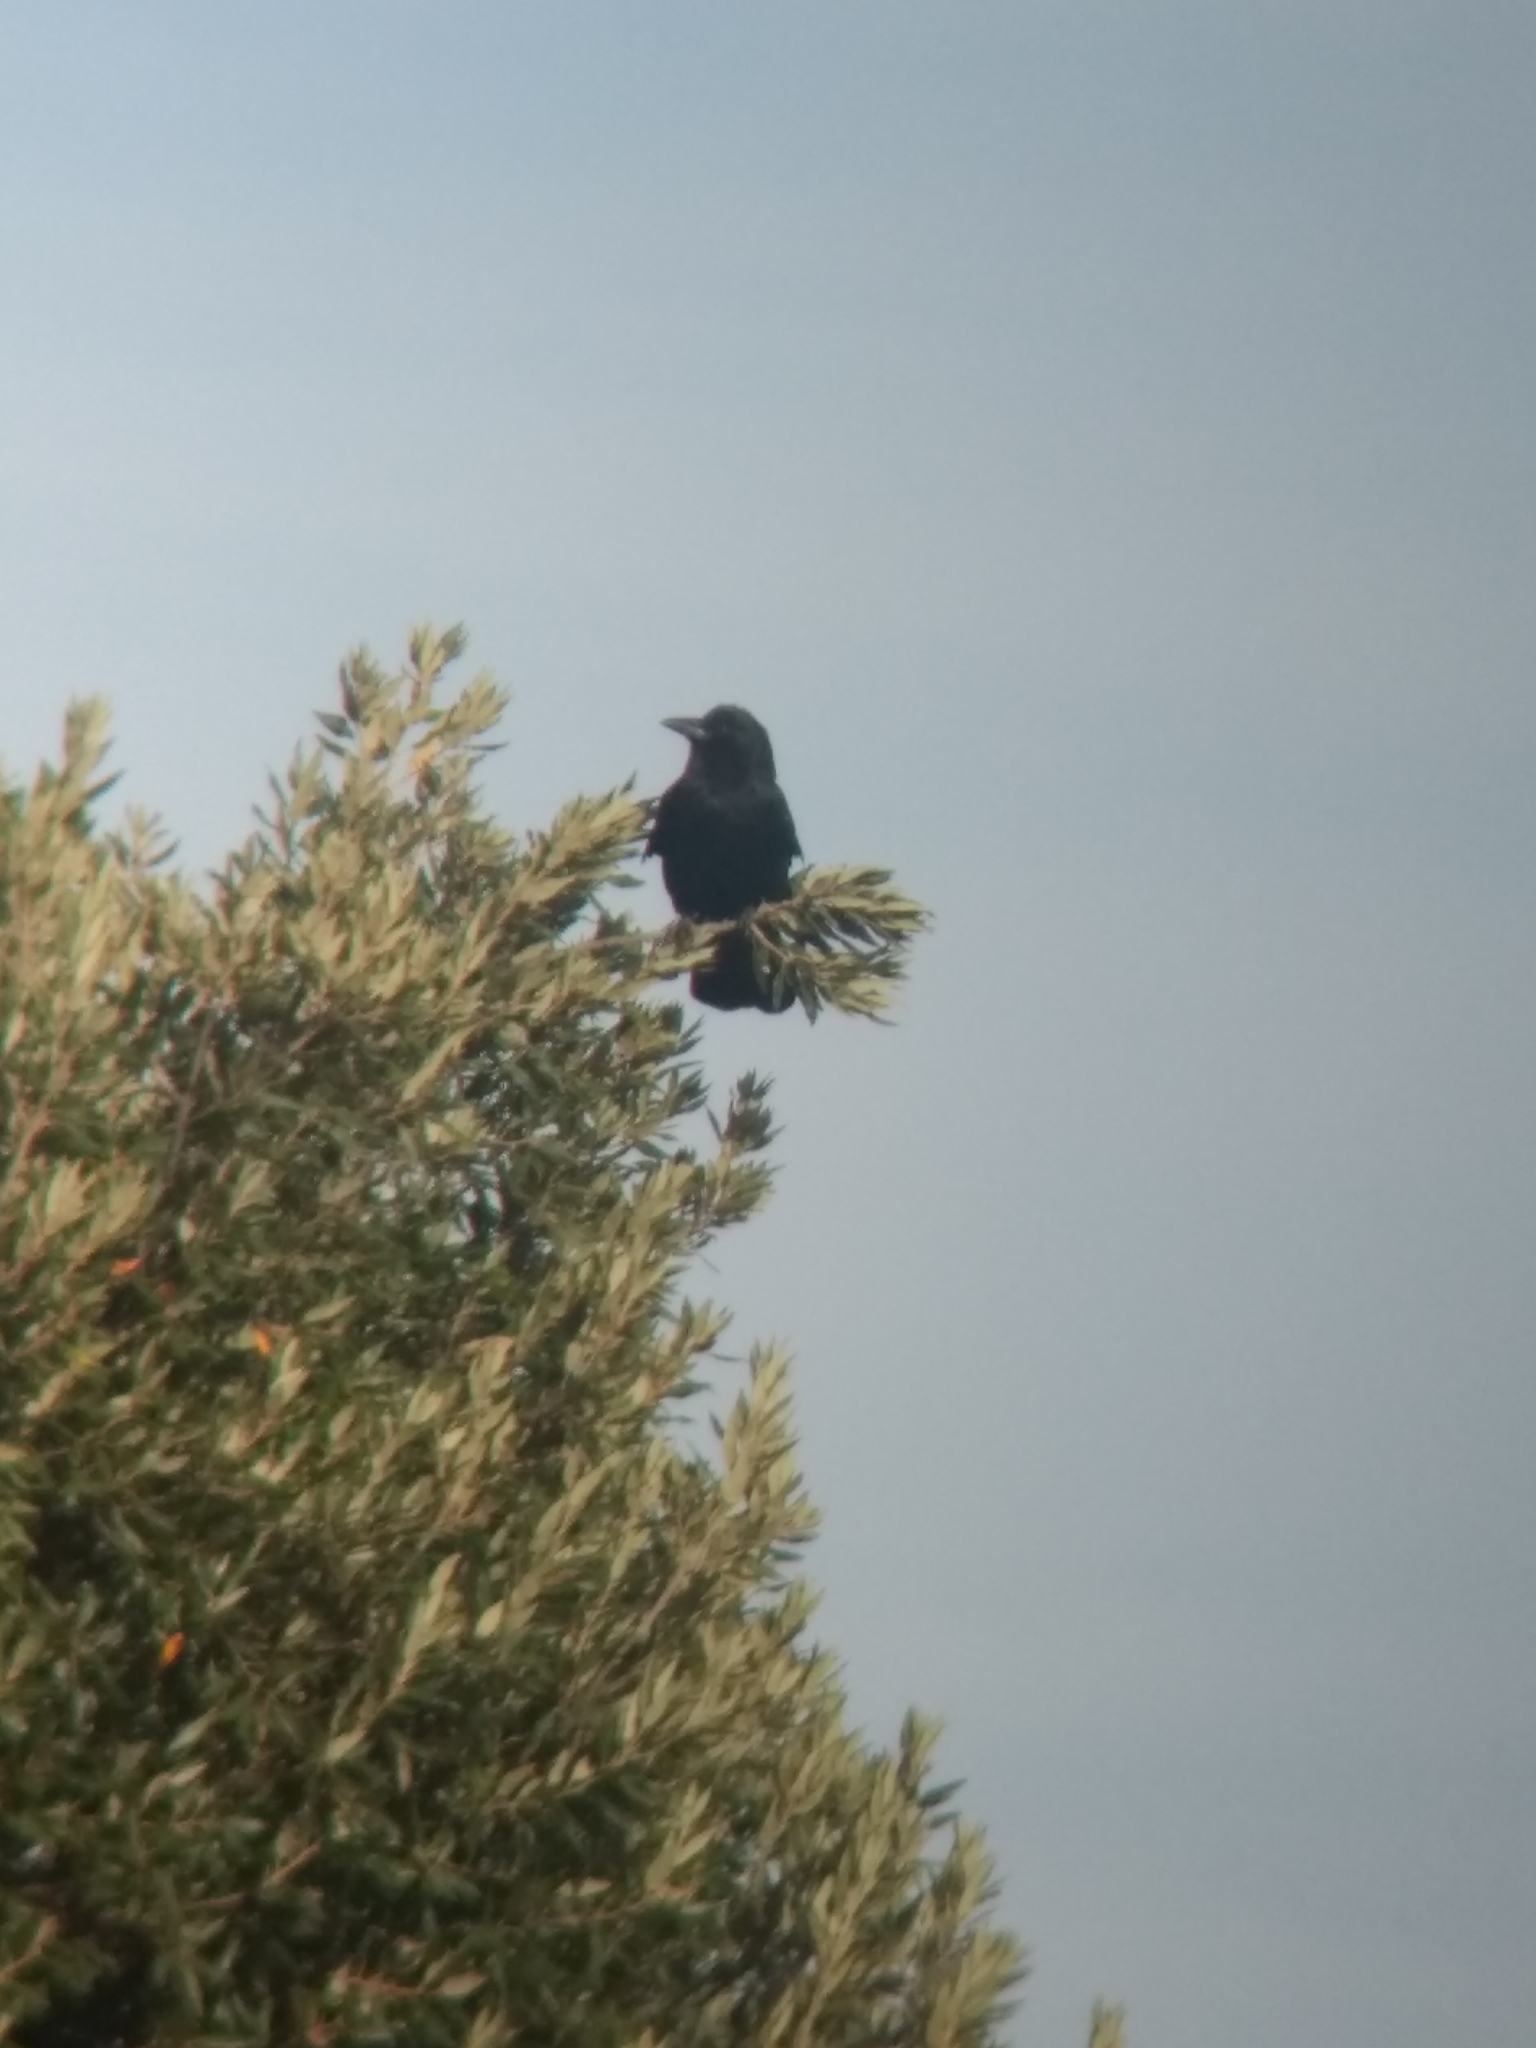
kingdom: Animalia
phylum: Chordata
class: Aves
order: Passeriformes
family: Corvidae
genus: Corvus
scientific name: Corvus brachyrhynchos
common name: American crow
